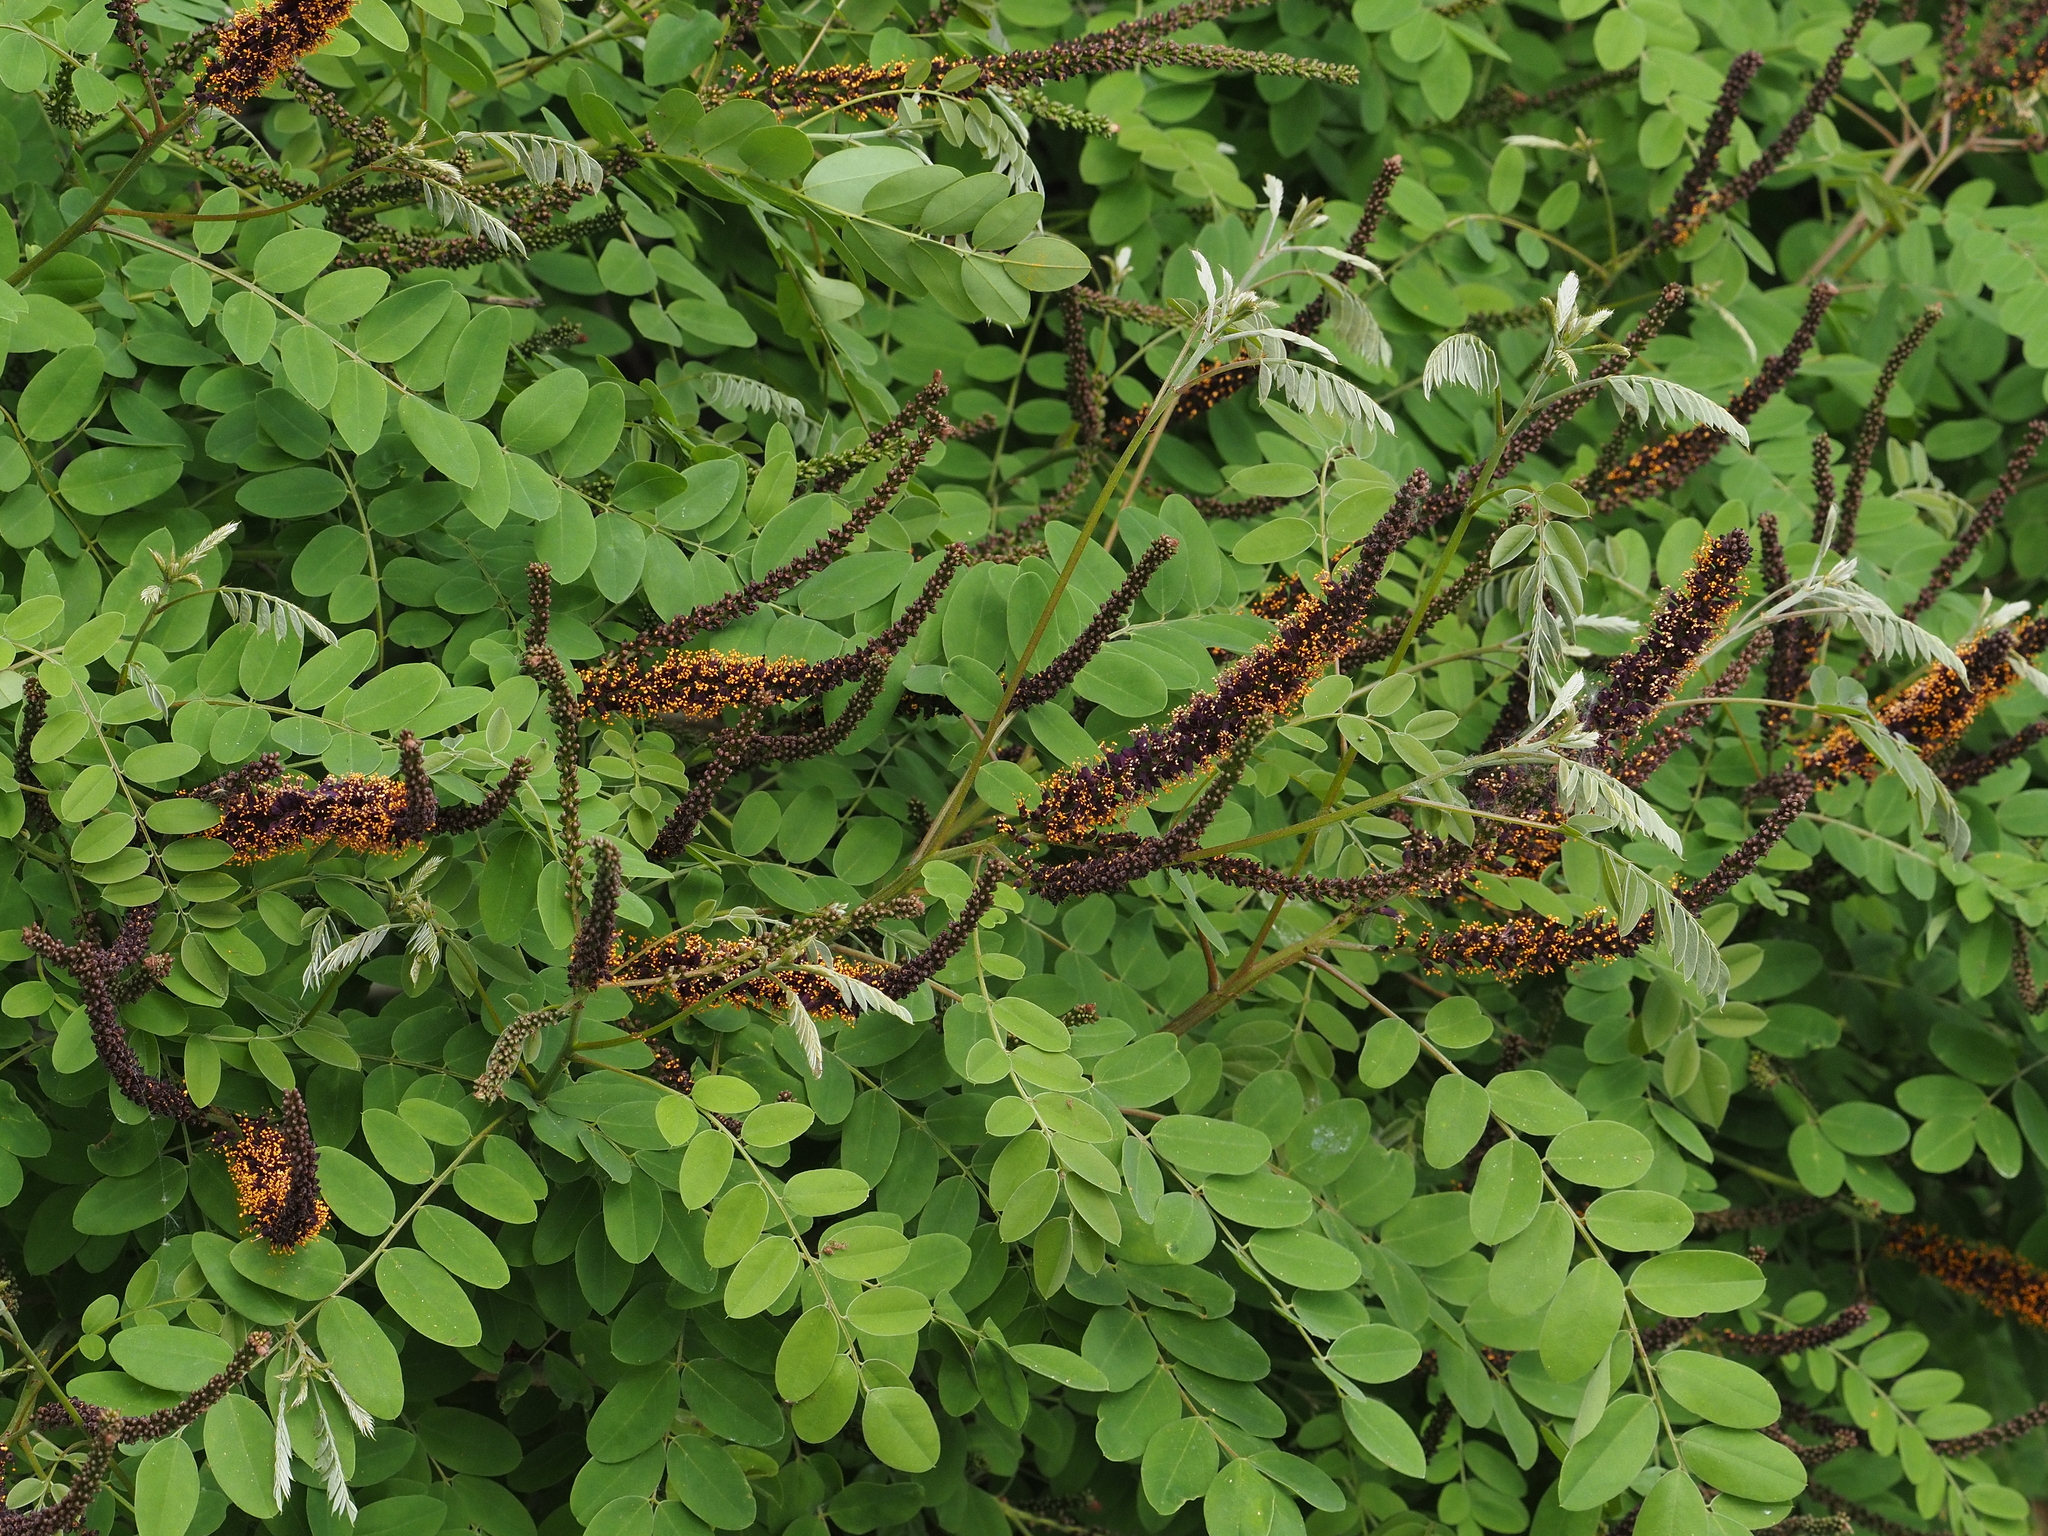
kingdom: Plantae
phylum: Tracheophyta
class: Magnoliopsida
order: Fabales
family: Fabaceae
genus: Amorpha
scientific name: Amorpha fruticosa
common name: False indigo
